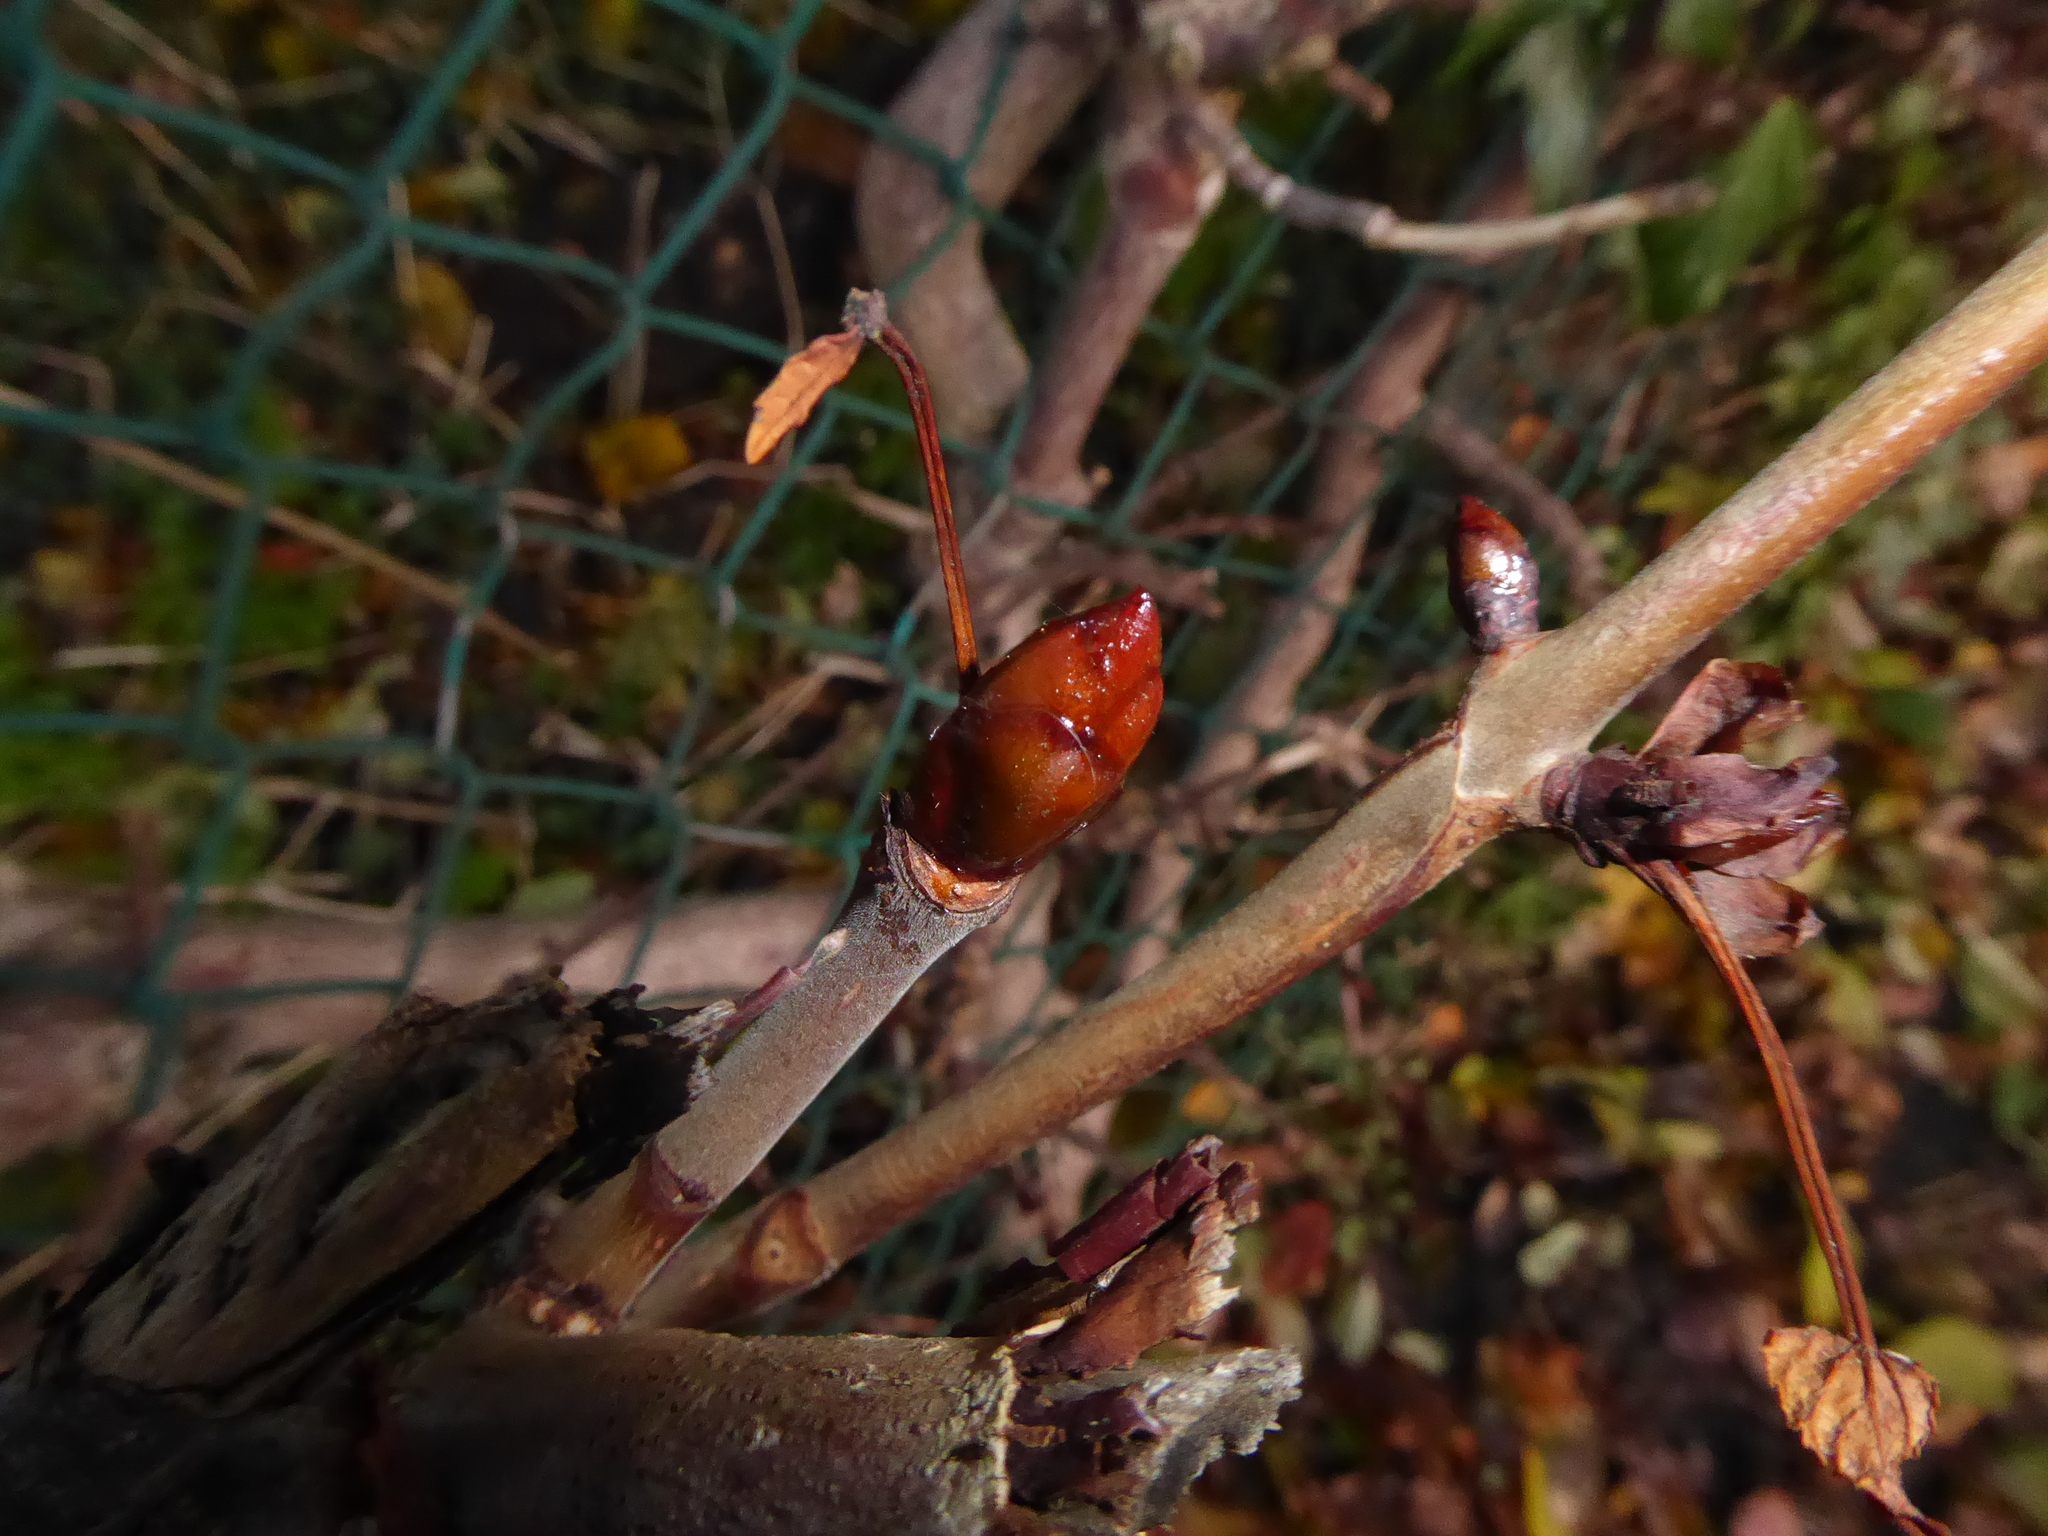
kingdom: Plantae
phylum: Tracheophyta
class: Magnoliopsida
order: Sapindales
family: Sapindaceae
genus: Aesculus
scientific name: Aesculus hippocastanum
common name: Horse-chestnut
